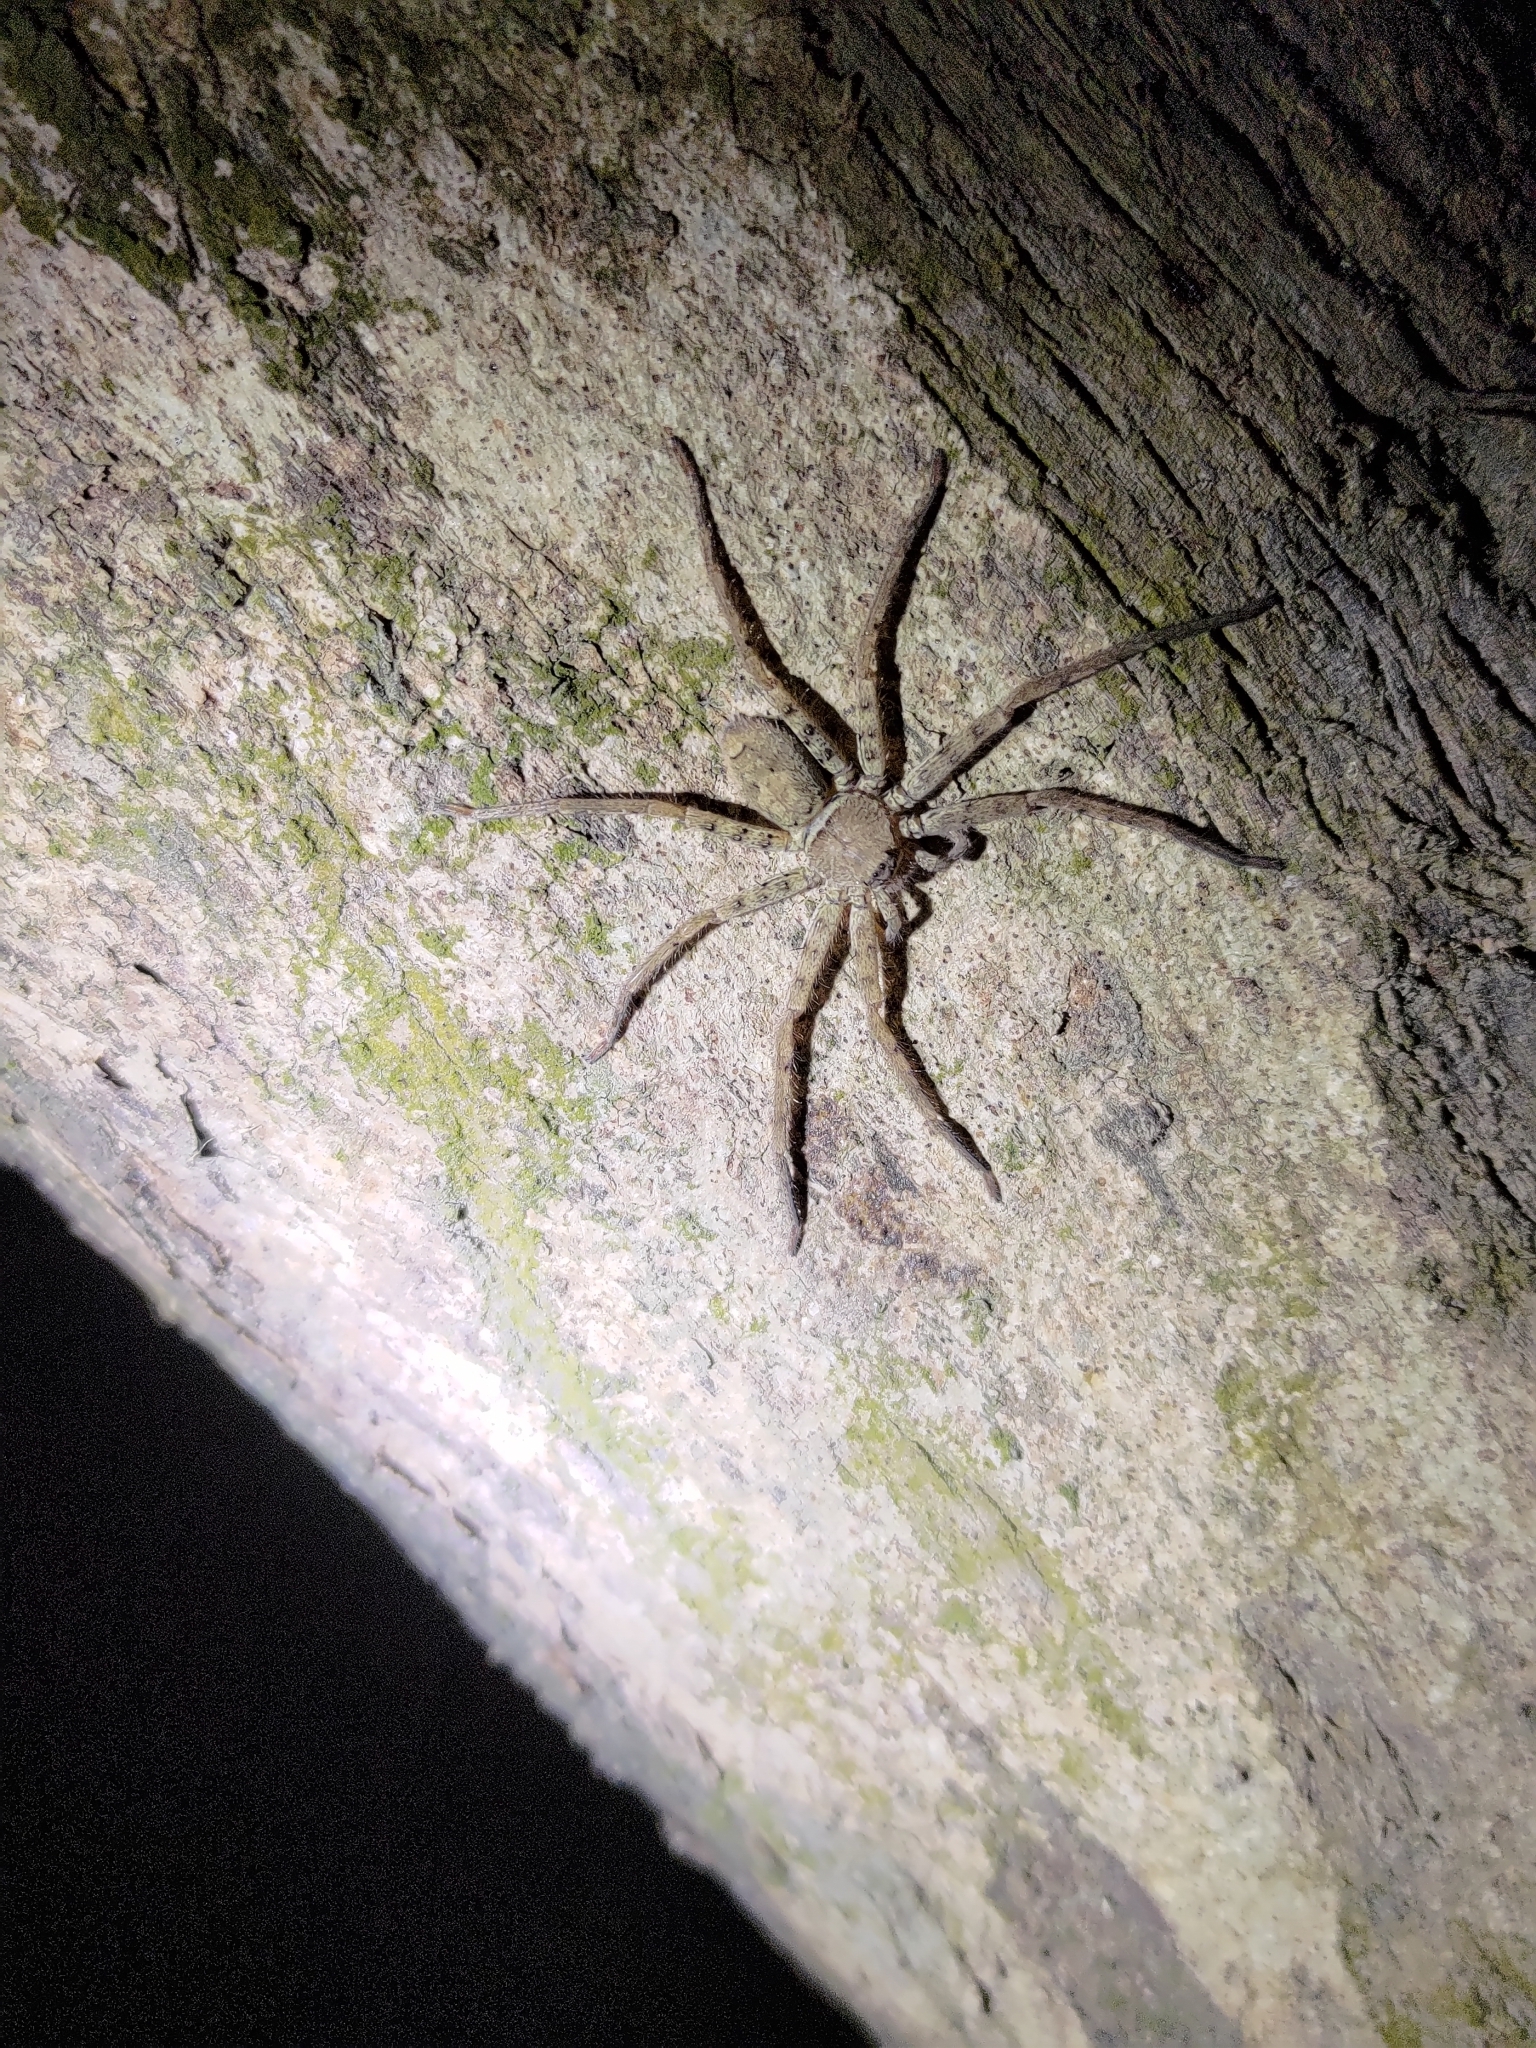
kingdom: Animalia
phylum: Arthropoda
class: Arachnida
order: Araneae
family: Sparassidae
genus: Heteropoda
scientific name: Heteropoda venatoria
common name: Huntsman spider
